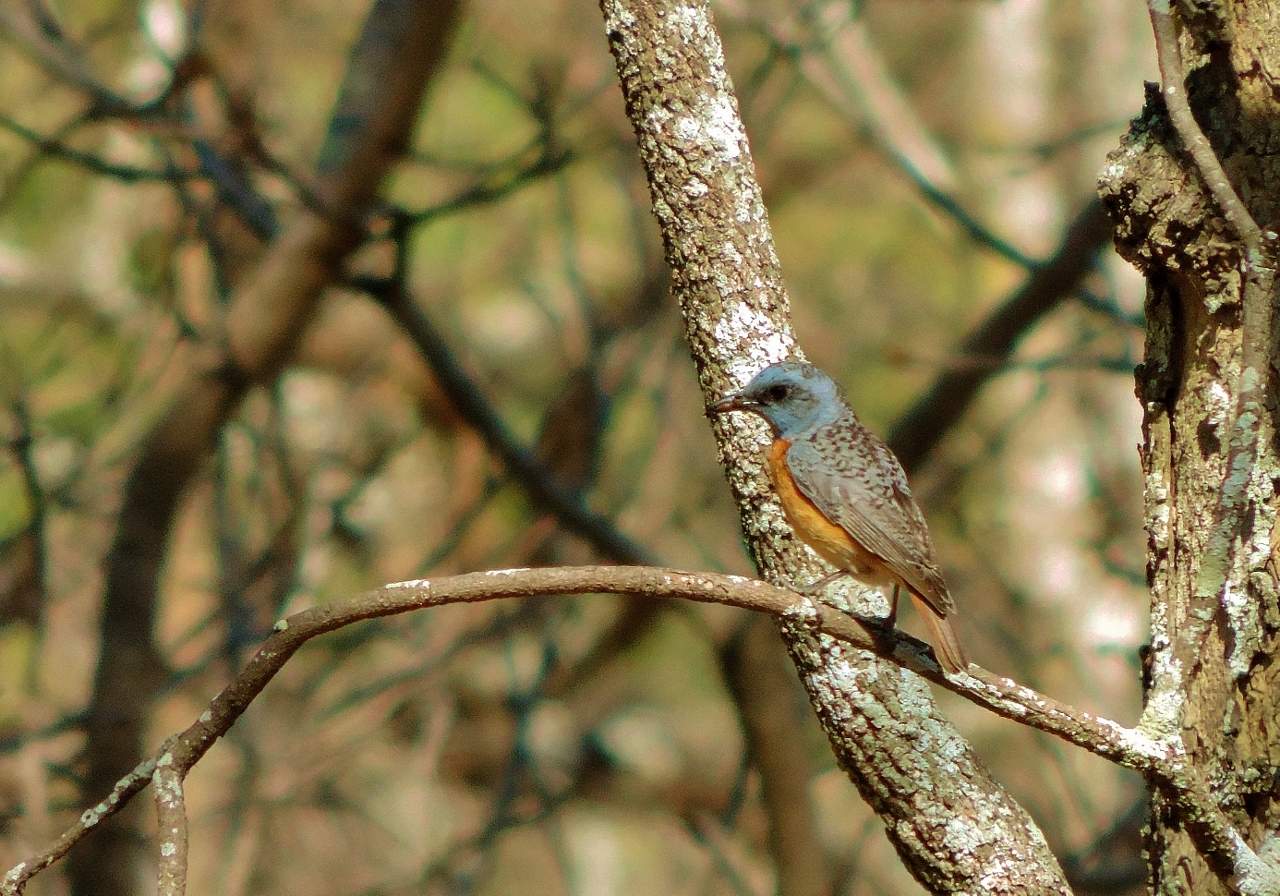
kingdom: Animalia
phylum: Chordata
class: Aves
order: Passeriformes
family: Muscicapidae
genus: Monticola
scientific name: Monticola angolensis
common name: Miombo rock thrush
